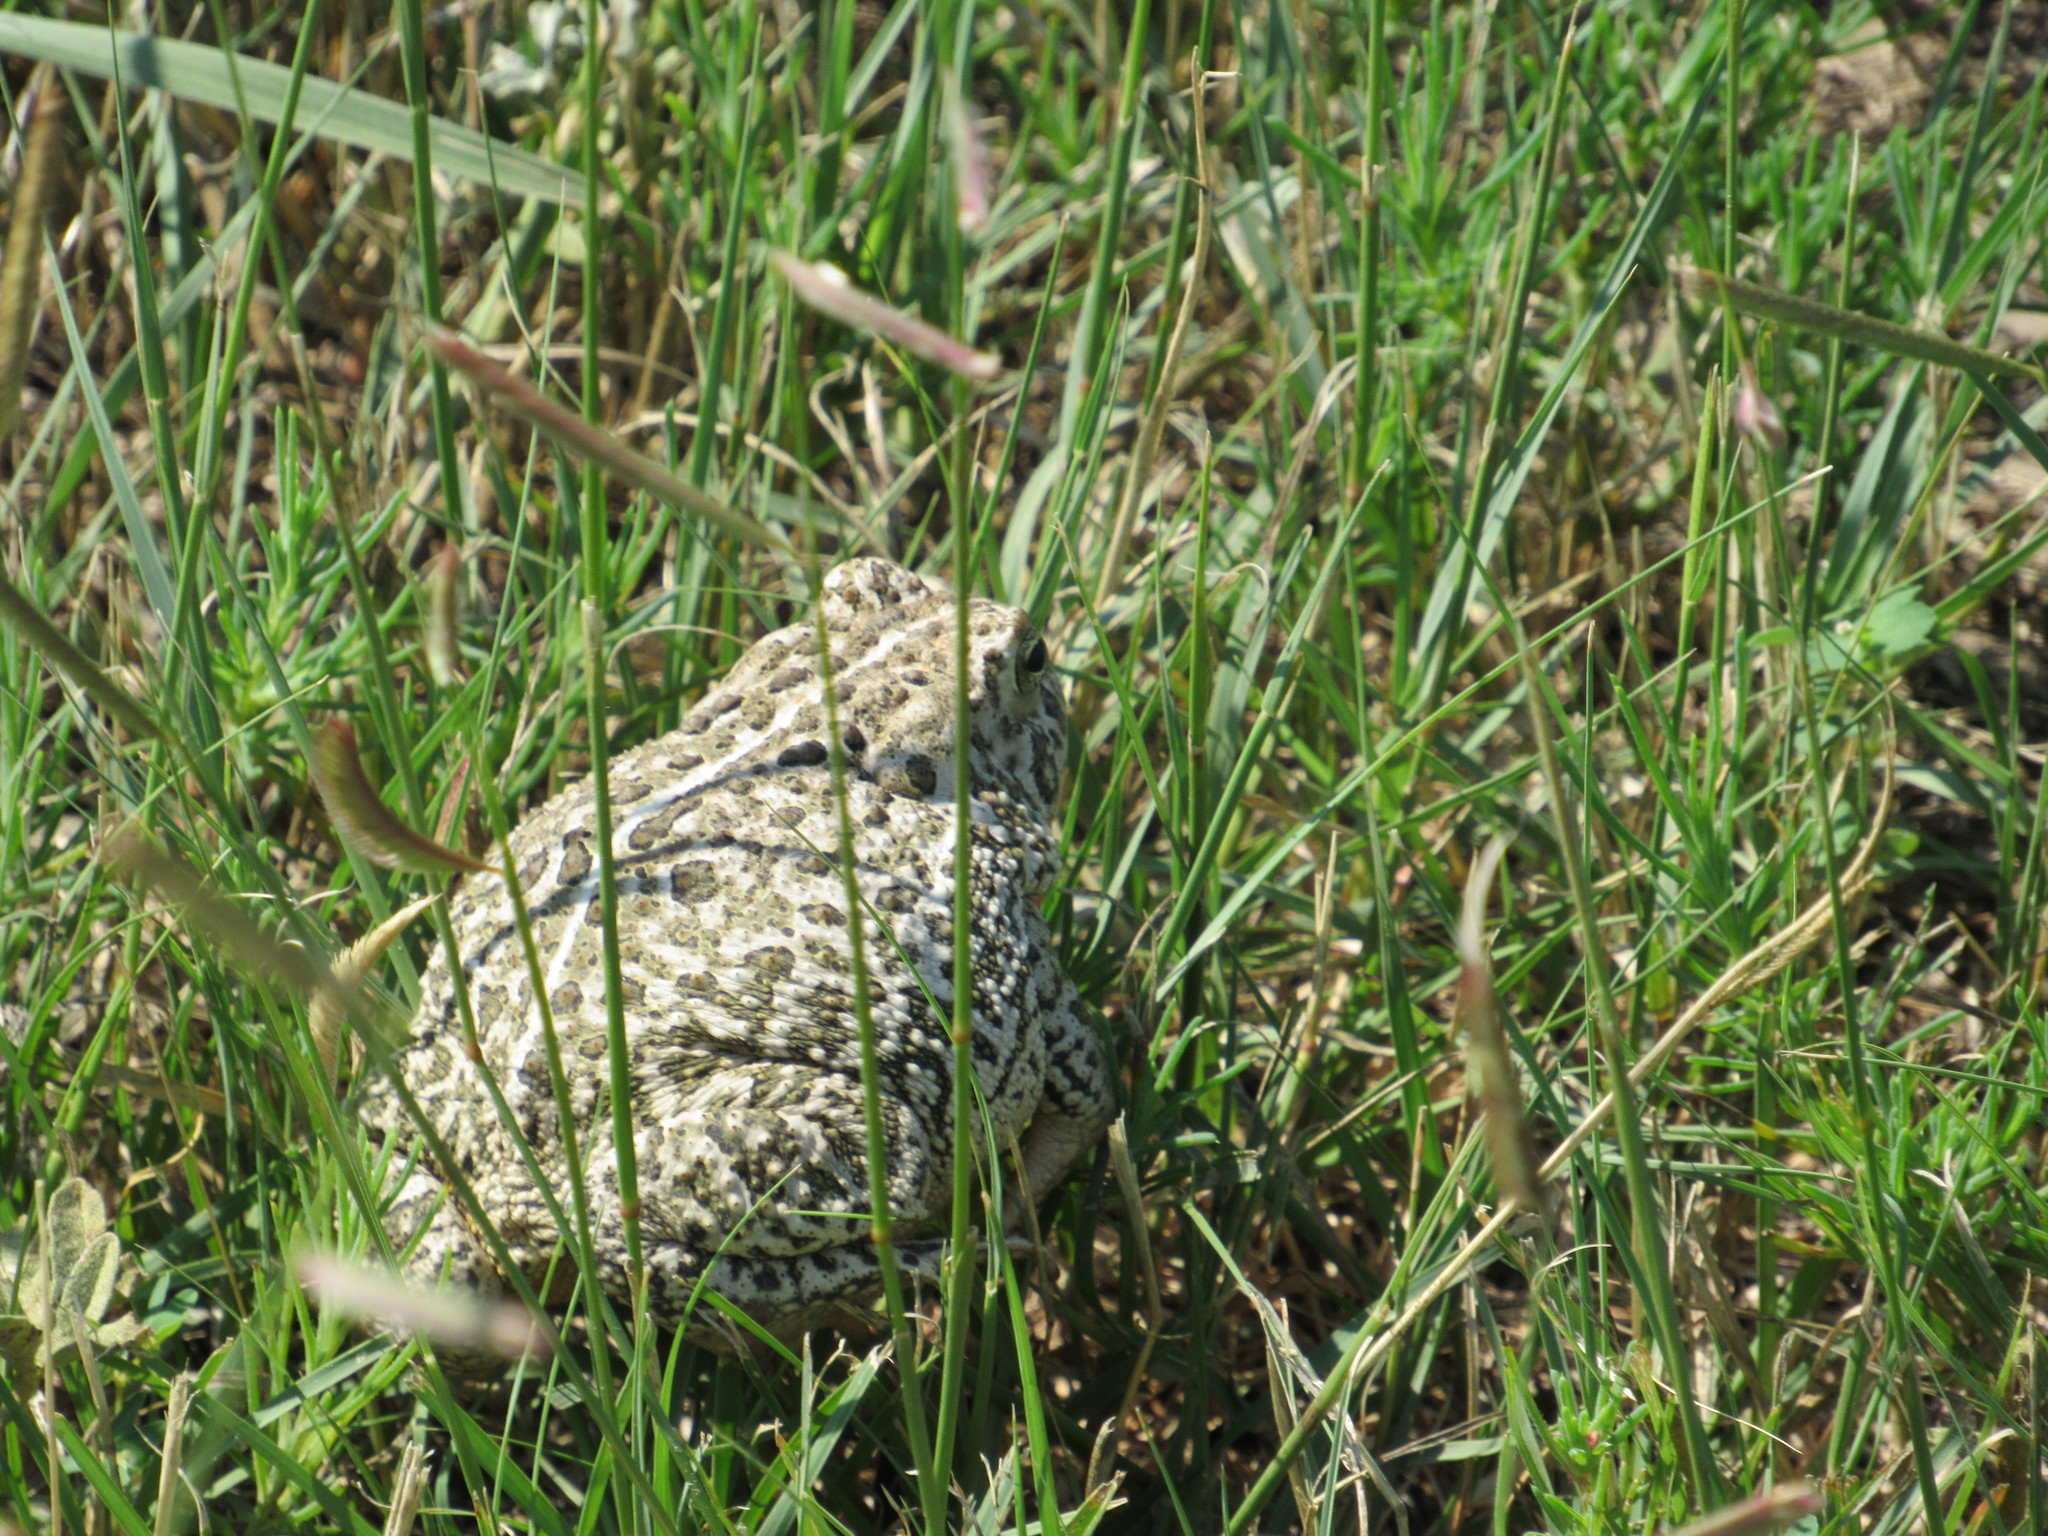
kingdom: Animalia
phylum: Chordata
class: Amphibia
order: Anura
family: Bufonidae
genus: Anaxyrus
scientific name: Anaxyrus woodhousii
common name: Woodhouse's toad
